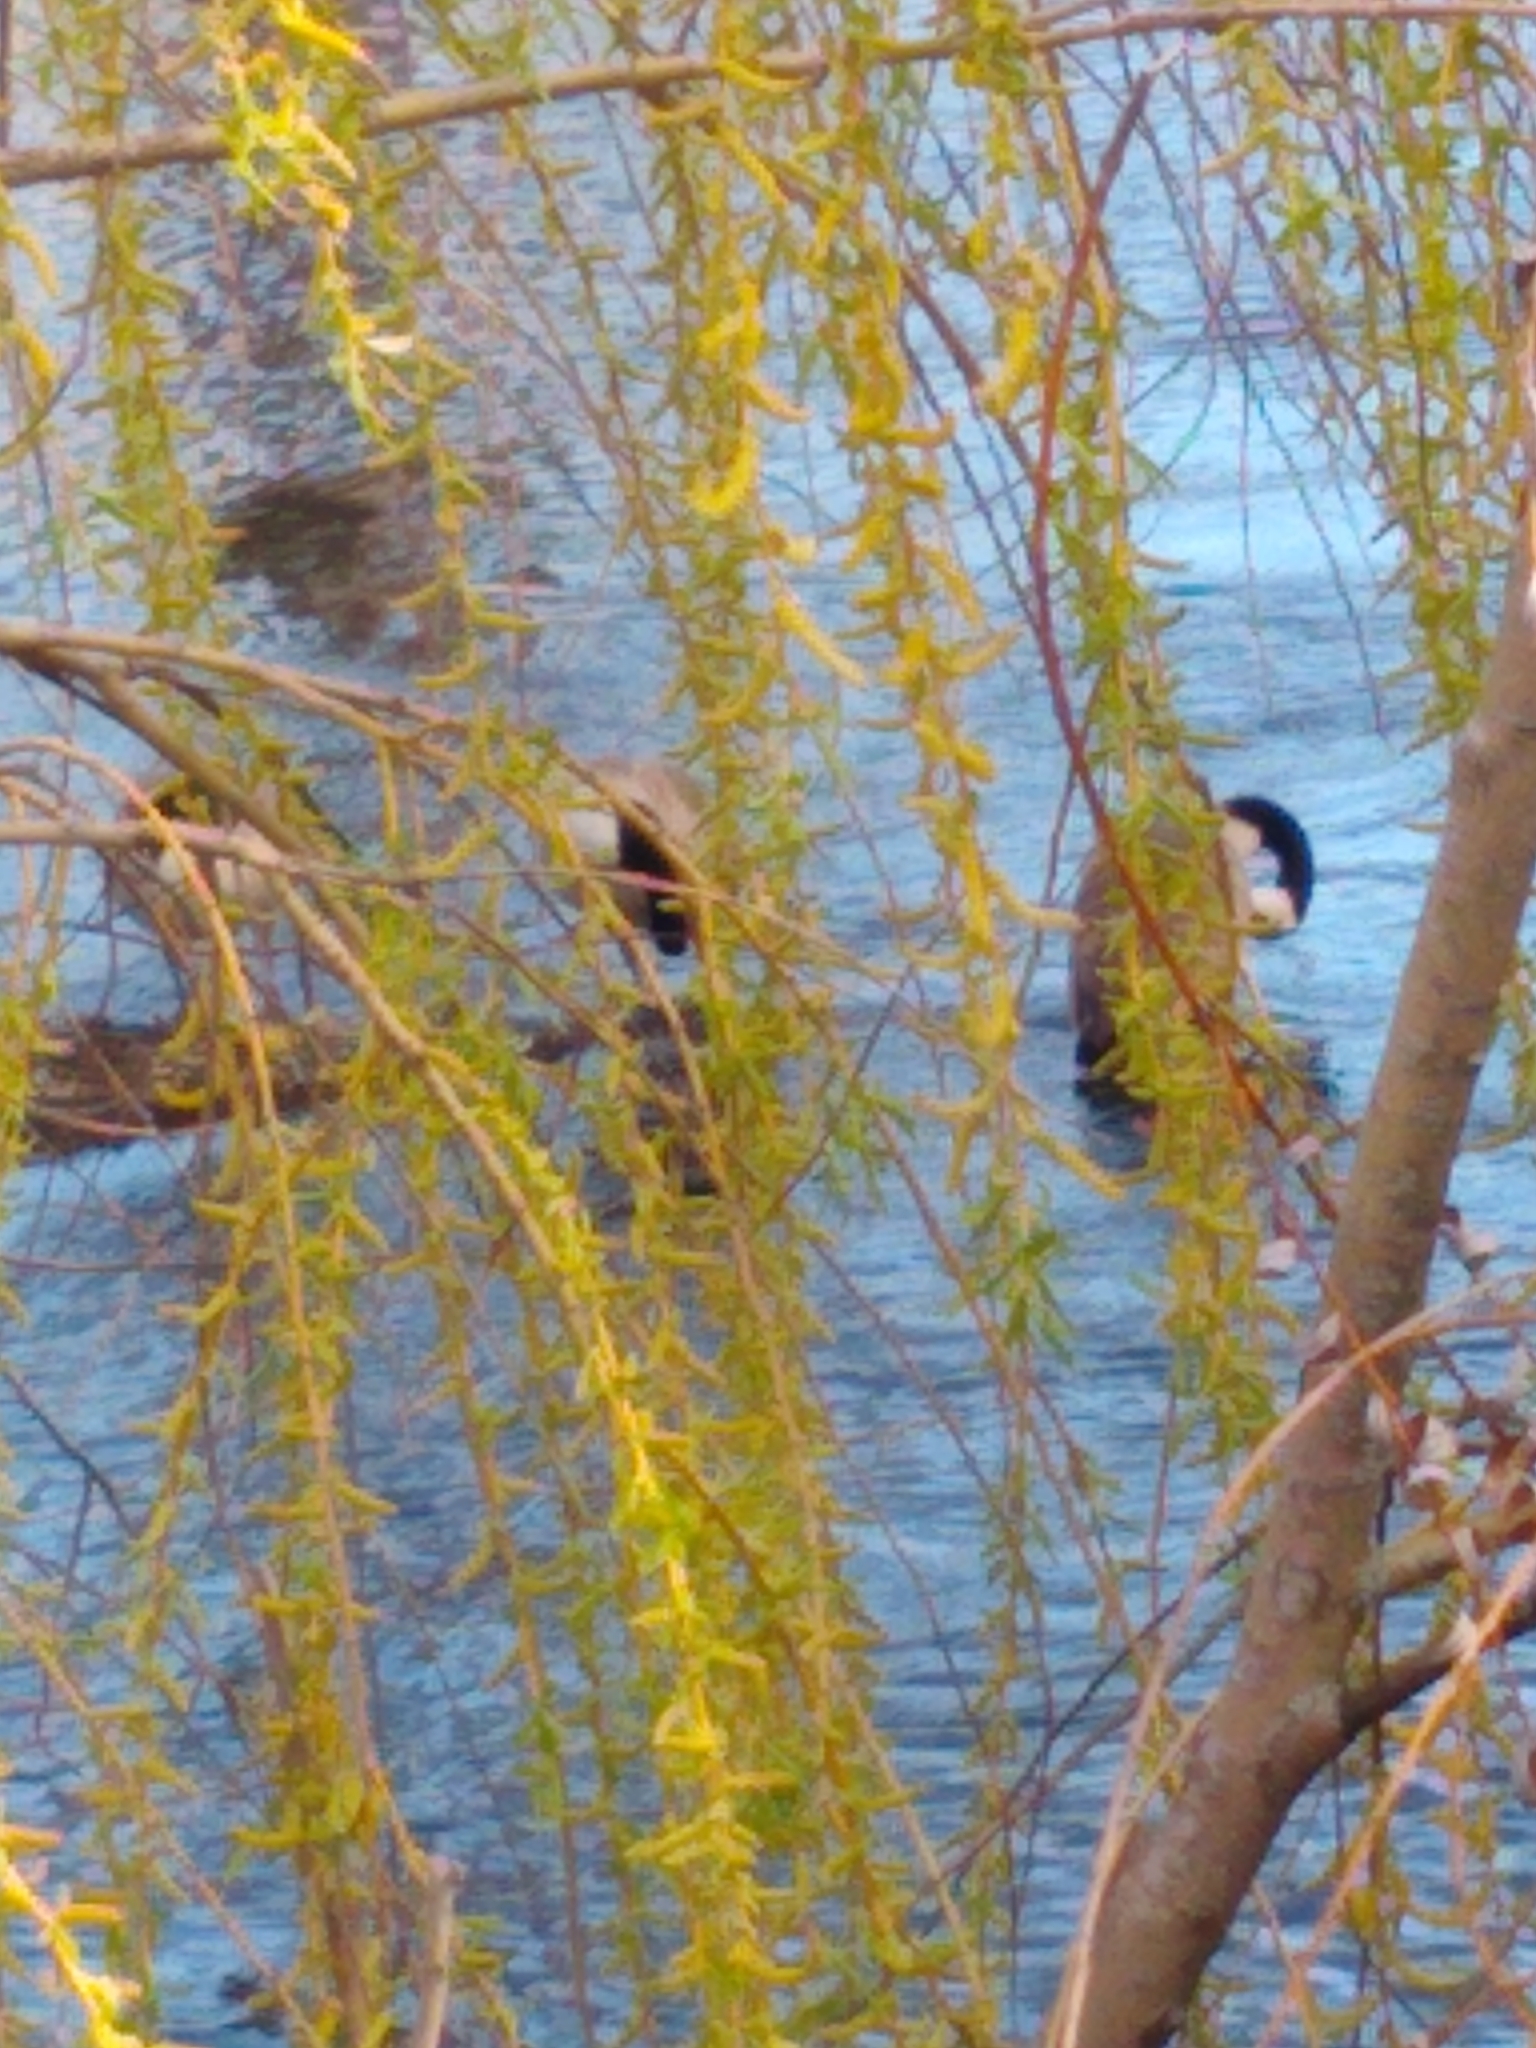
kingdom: Animalia
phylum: Chordata
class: Aves
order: Anseriformes
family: Anatidae
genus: Branta
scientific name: Branta canadensis
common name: Canada goose
